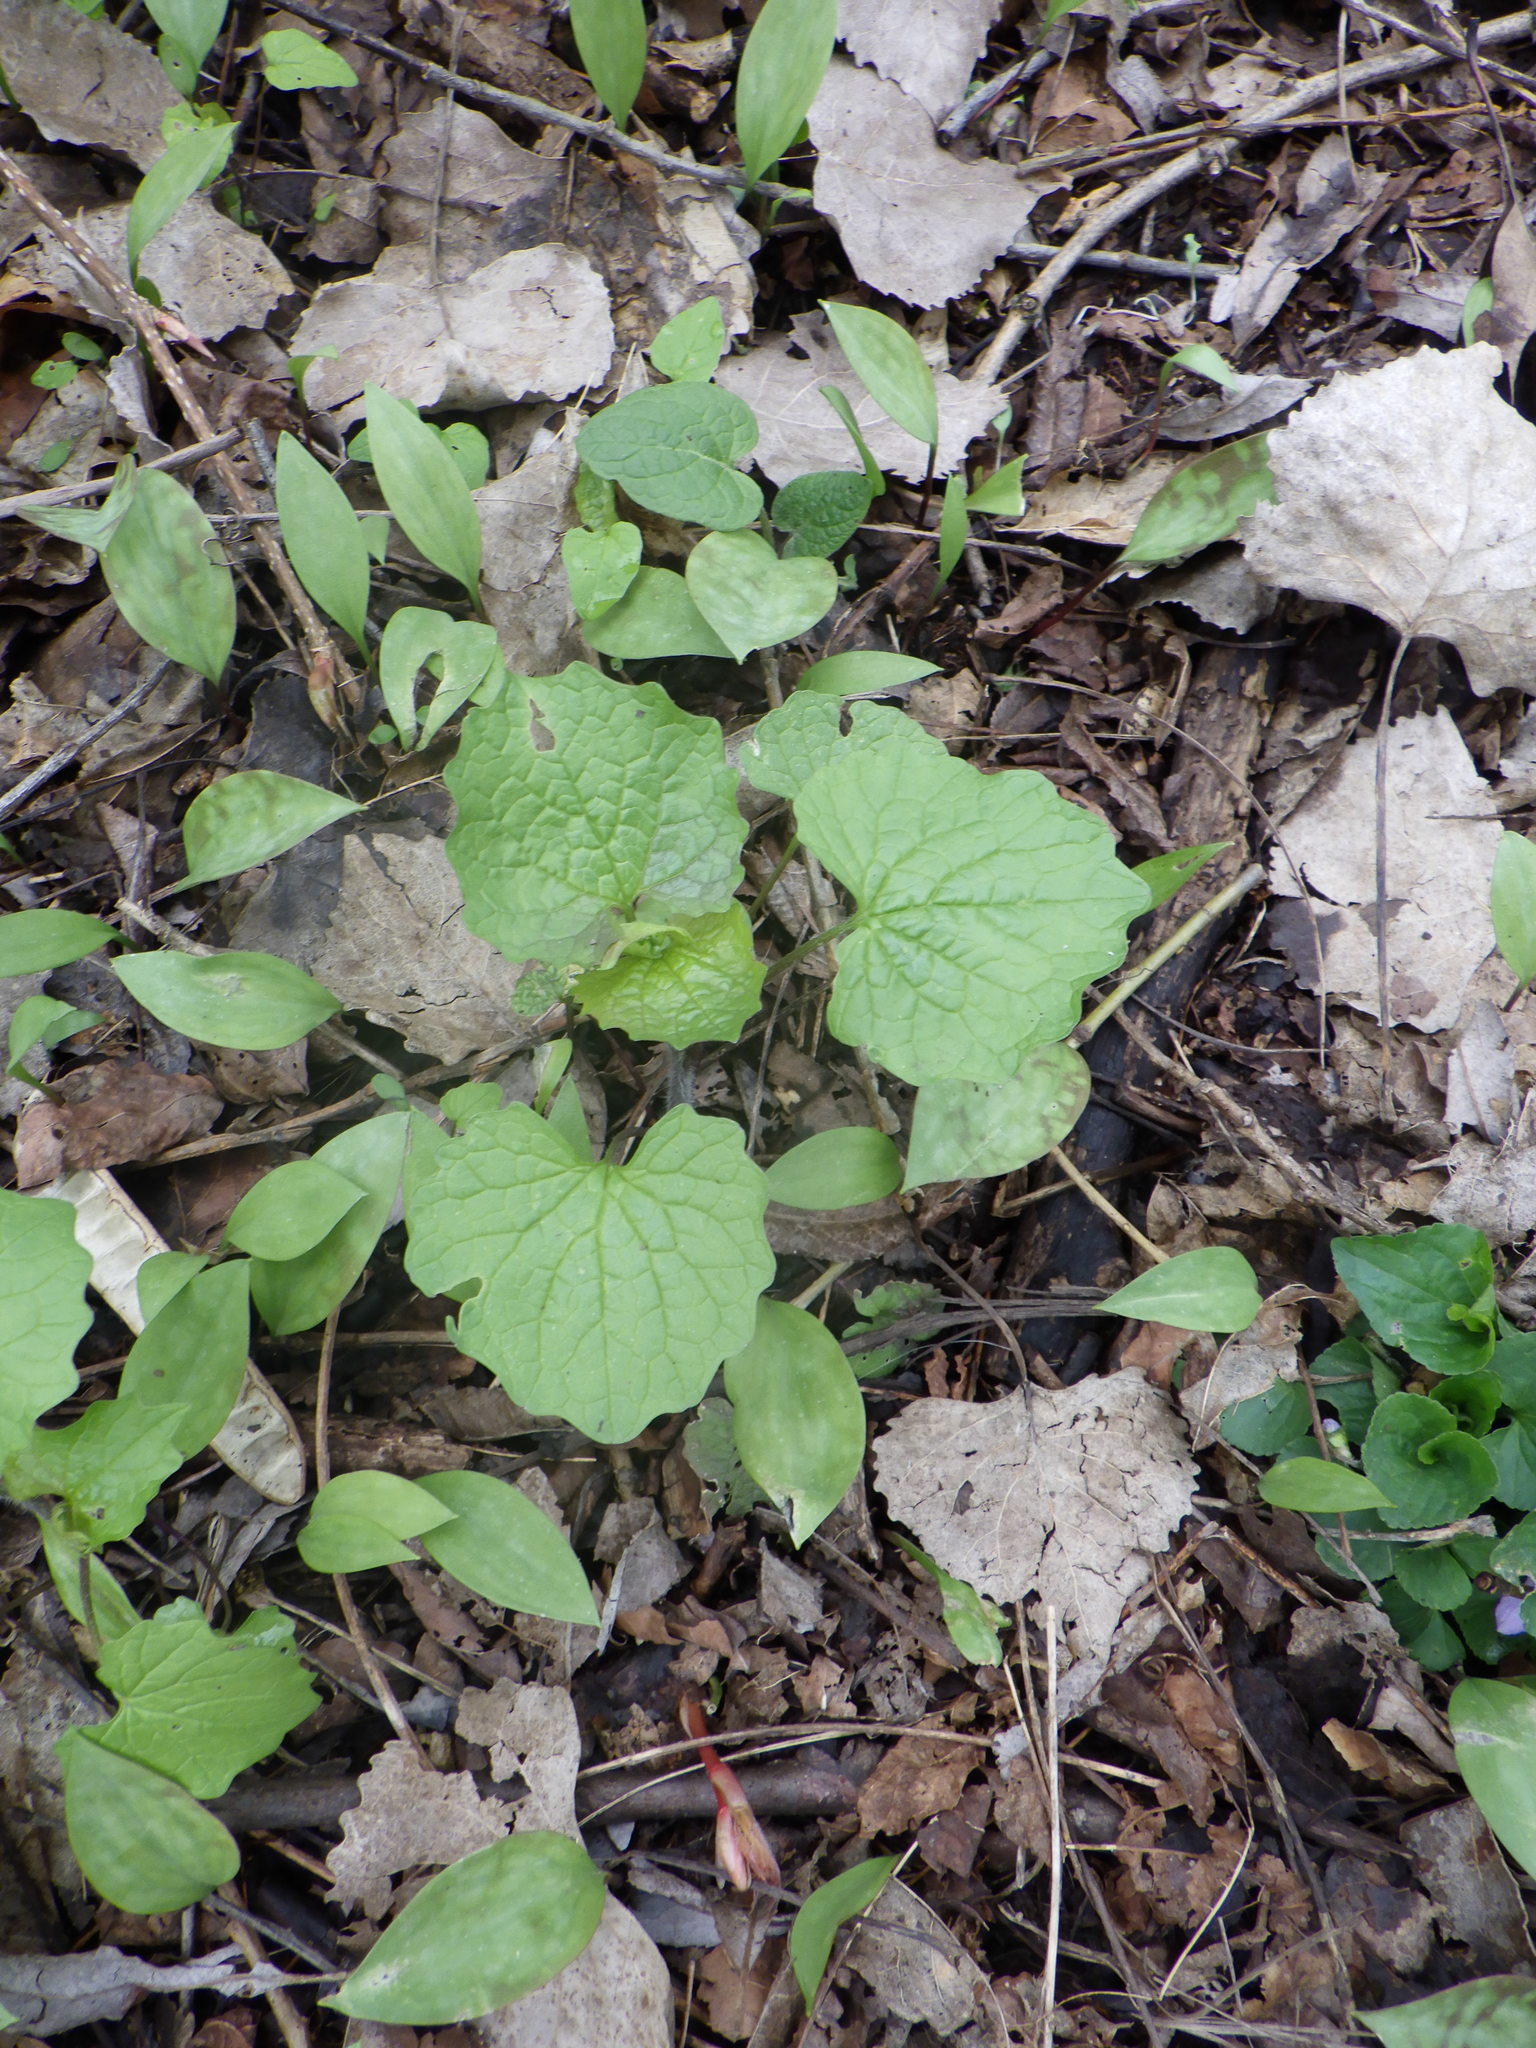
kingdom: Plantae
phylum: Tracheophyta
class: Magnoliopsida
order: Brassicales
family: Brassicaceae
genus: Alliaria
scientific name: Alliaria petiolata
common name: Garlic mustard
